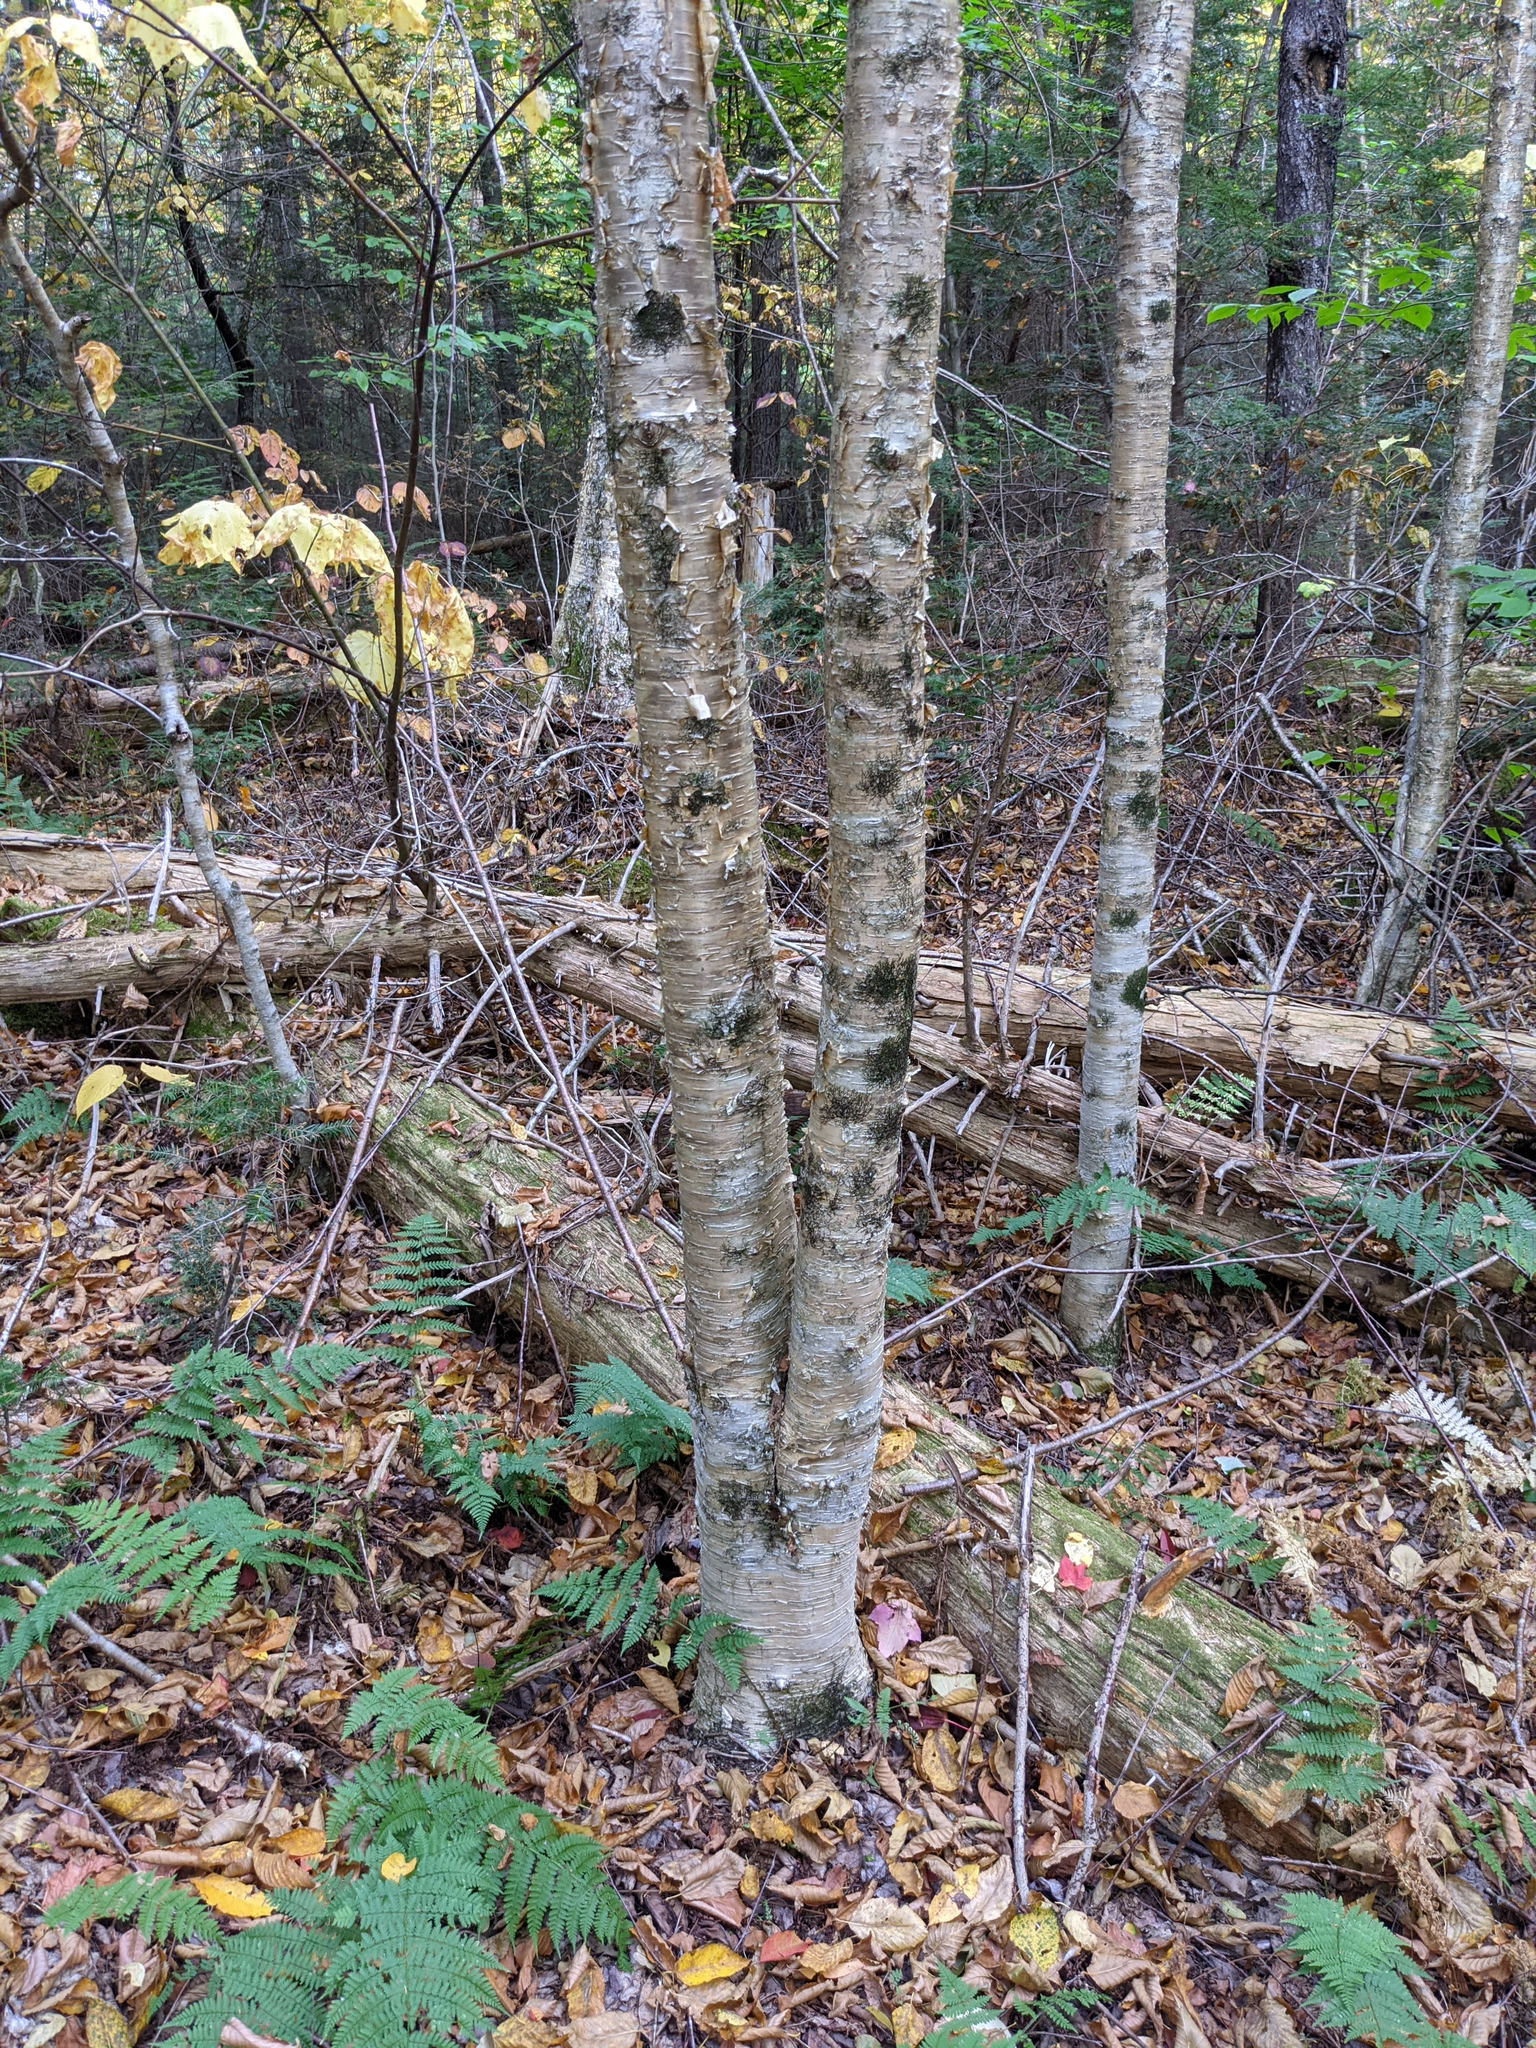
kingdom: Plantae
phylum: Tracheophyta
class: Magnoliopsida
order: Fagales
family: Betulaceae
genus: Betula
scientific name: Betula alleghaniensis
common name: Yellow birch
